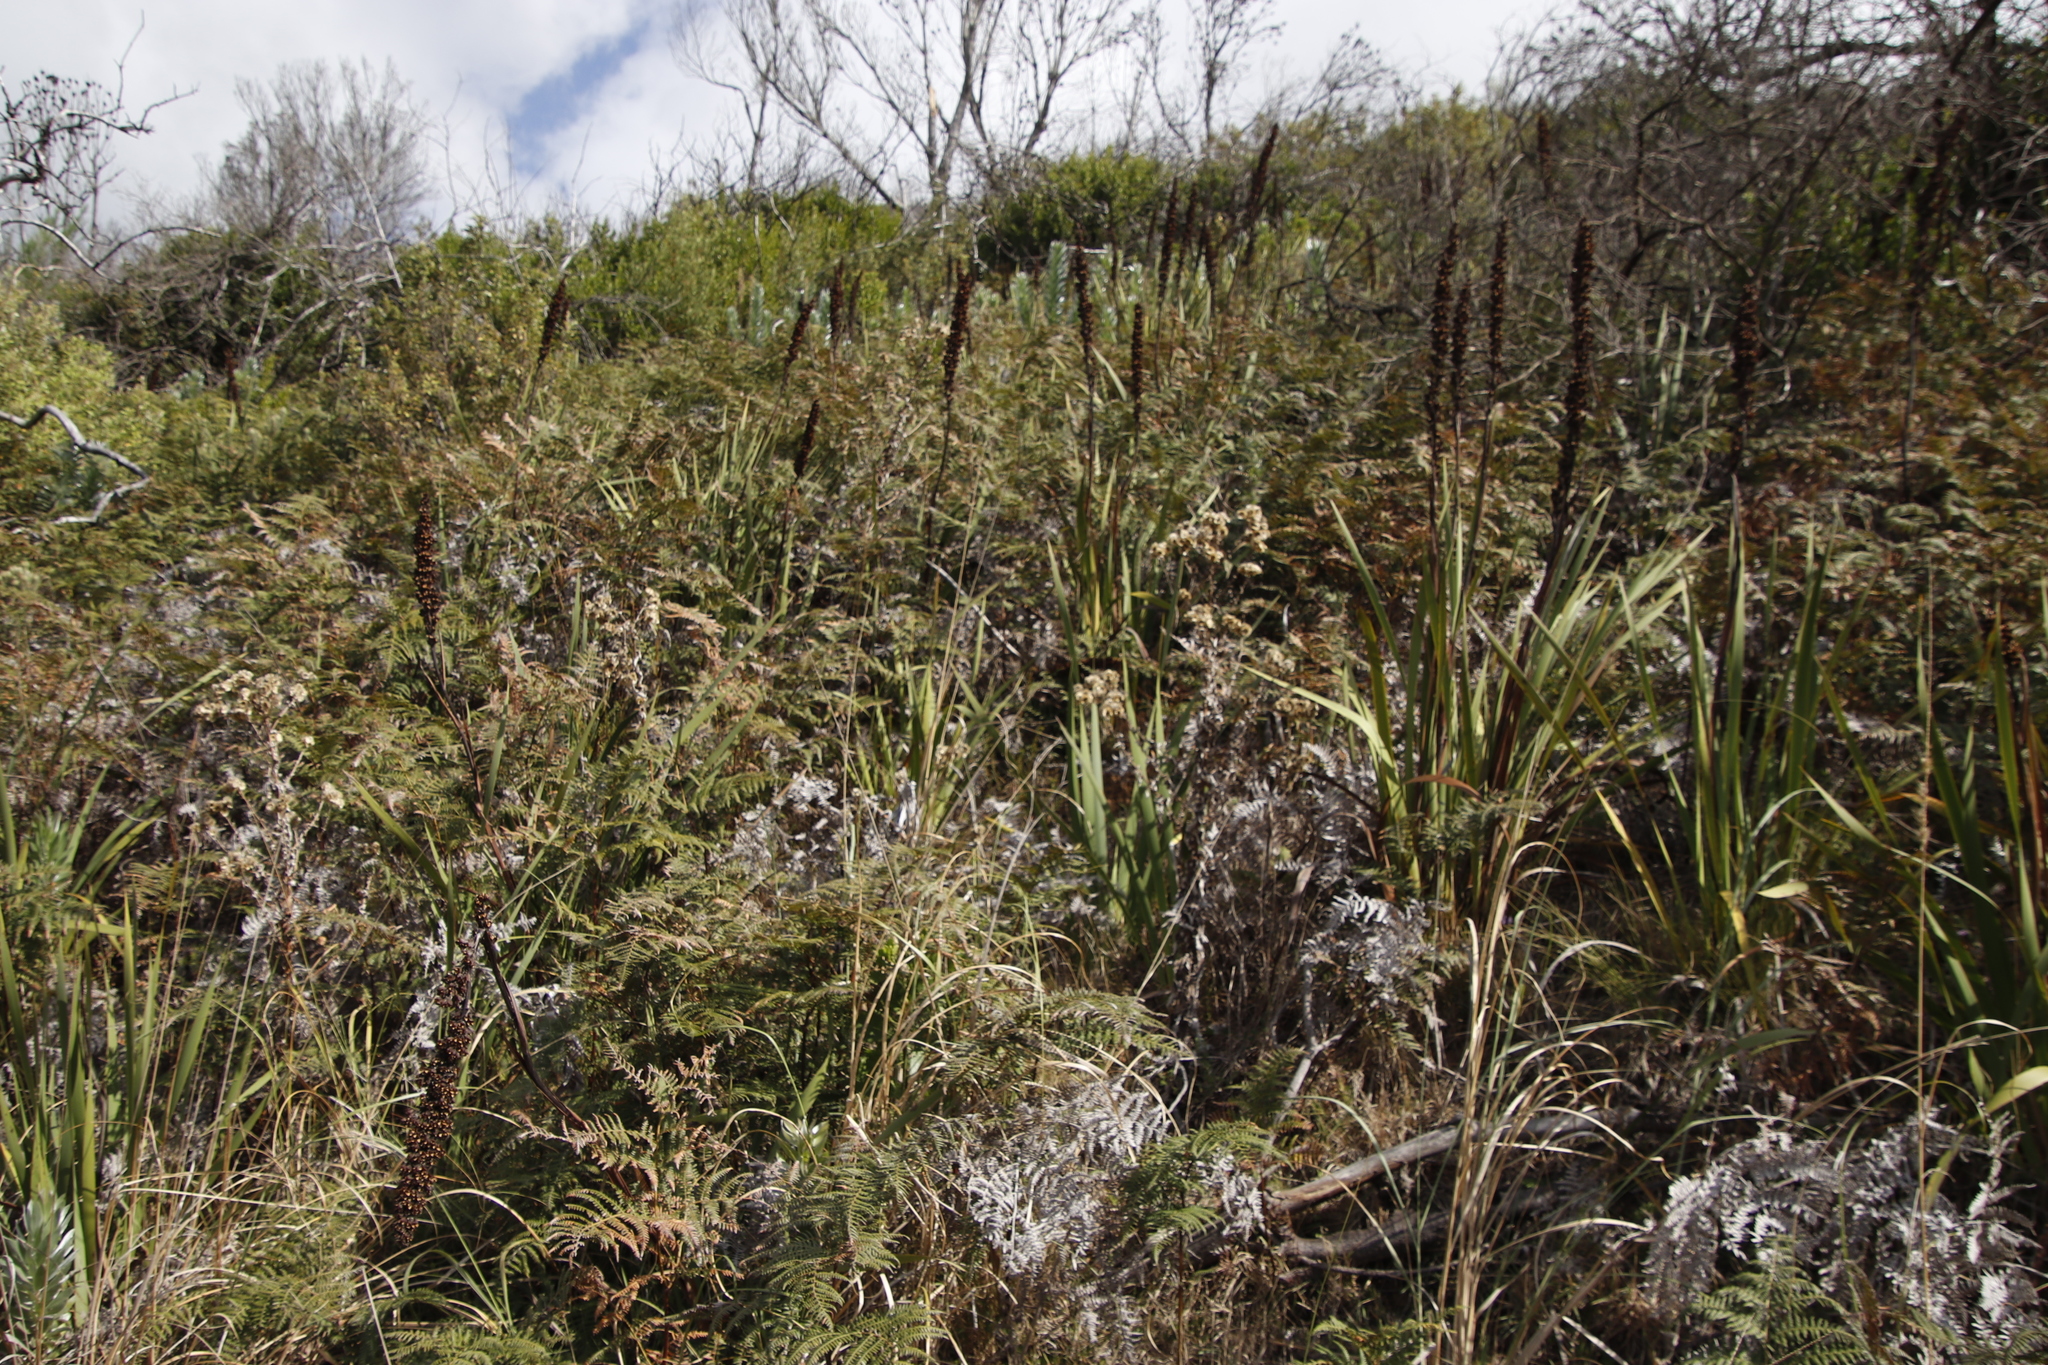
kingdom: Plantae
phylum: Tracheophyta
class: Polypodiopsida
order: Polypodiales
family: Dennstaedtiaceae
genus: Pteridium
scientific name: Pteridium aquilinum
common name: Bracken
